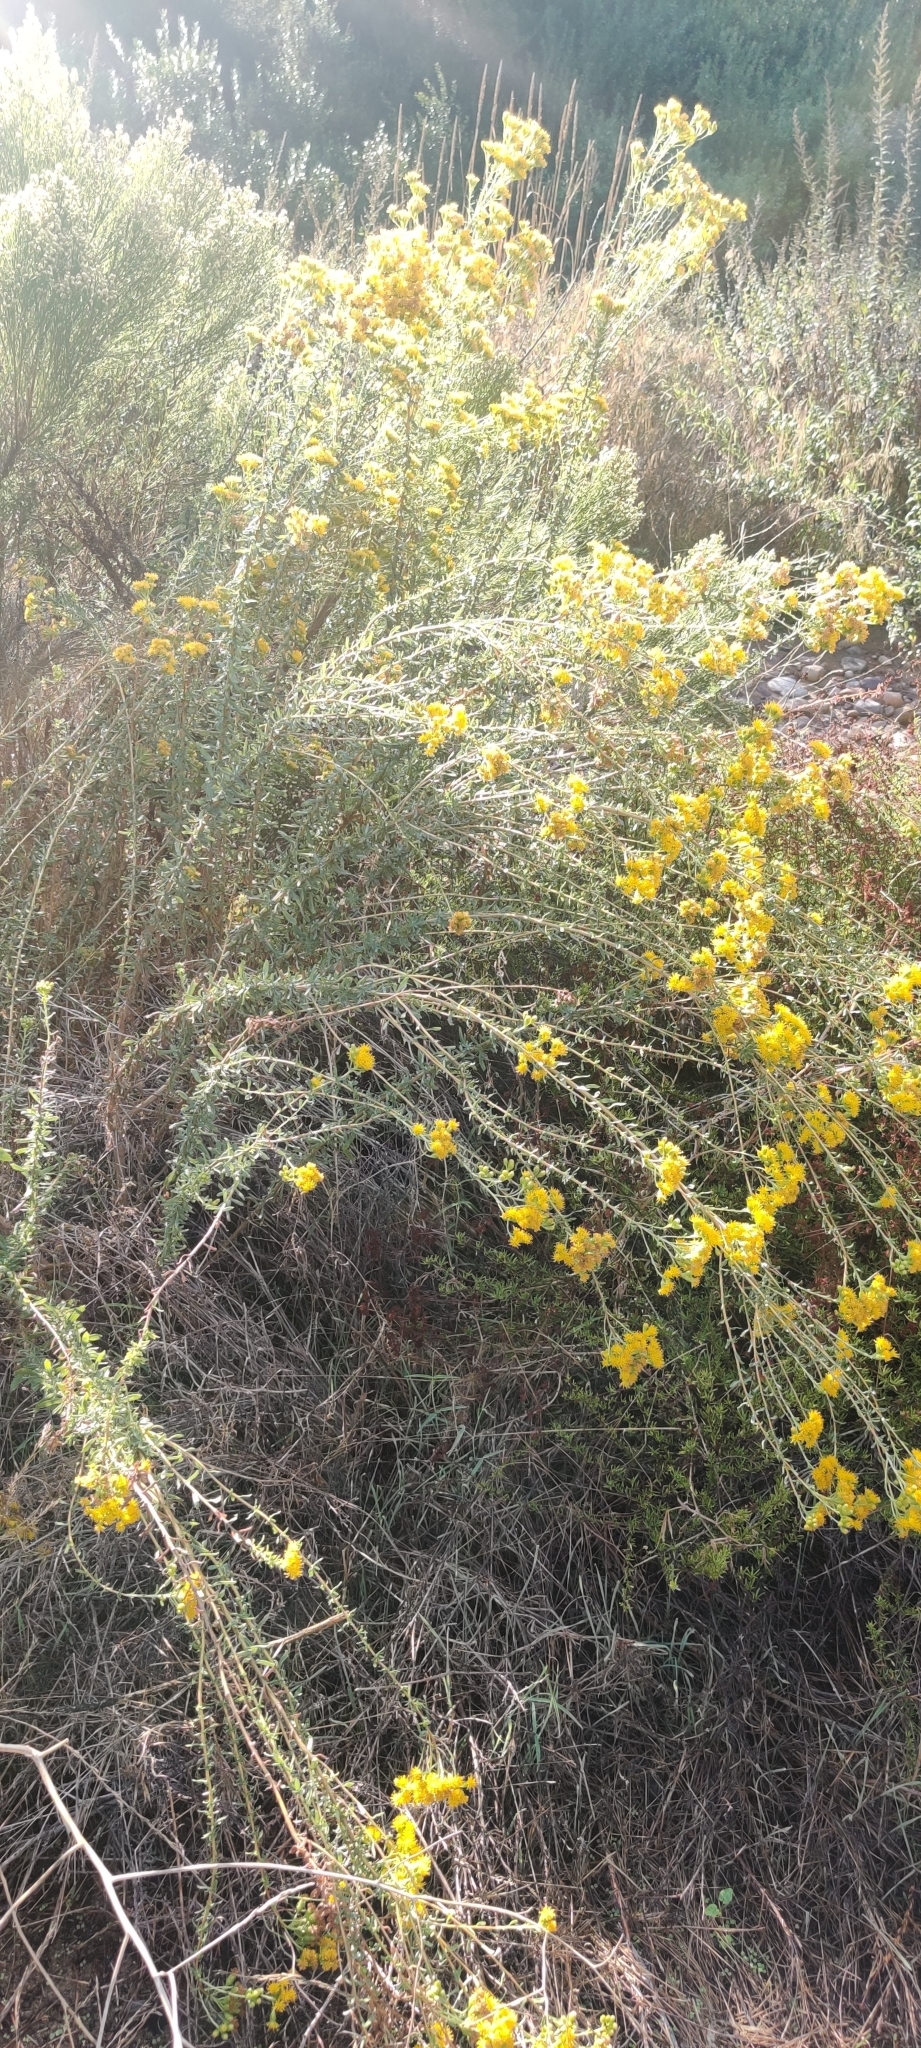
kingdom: Plantae
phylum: Tracheophyta
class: Magnoliopsida
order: Asterales
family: Asteraceae
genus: Isocoma
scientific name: Isocoma menziesii
